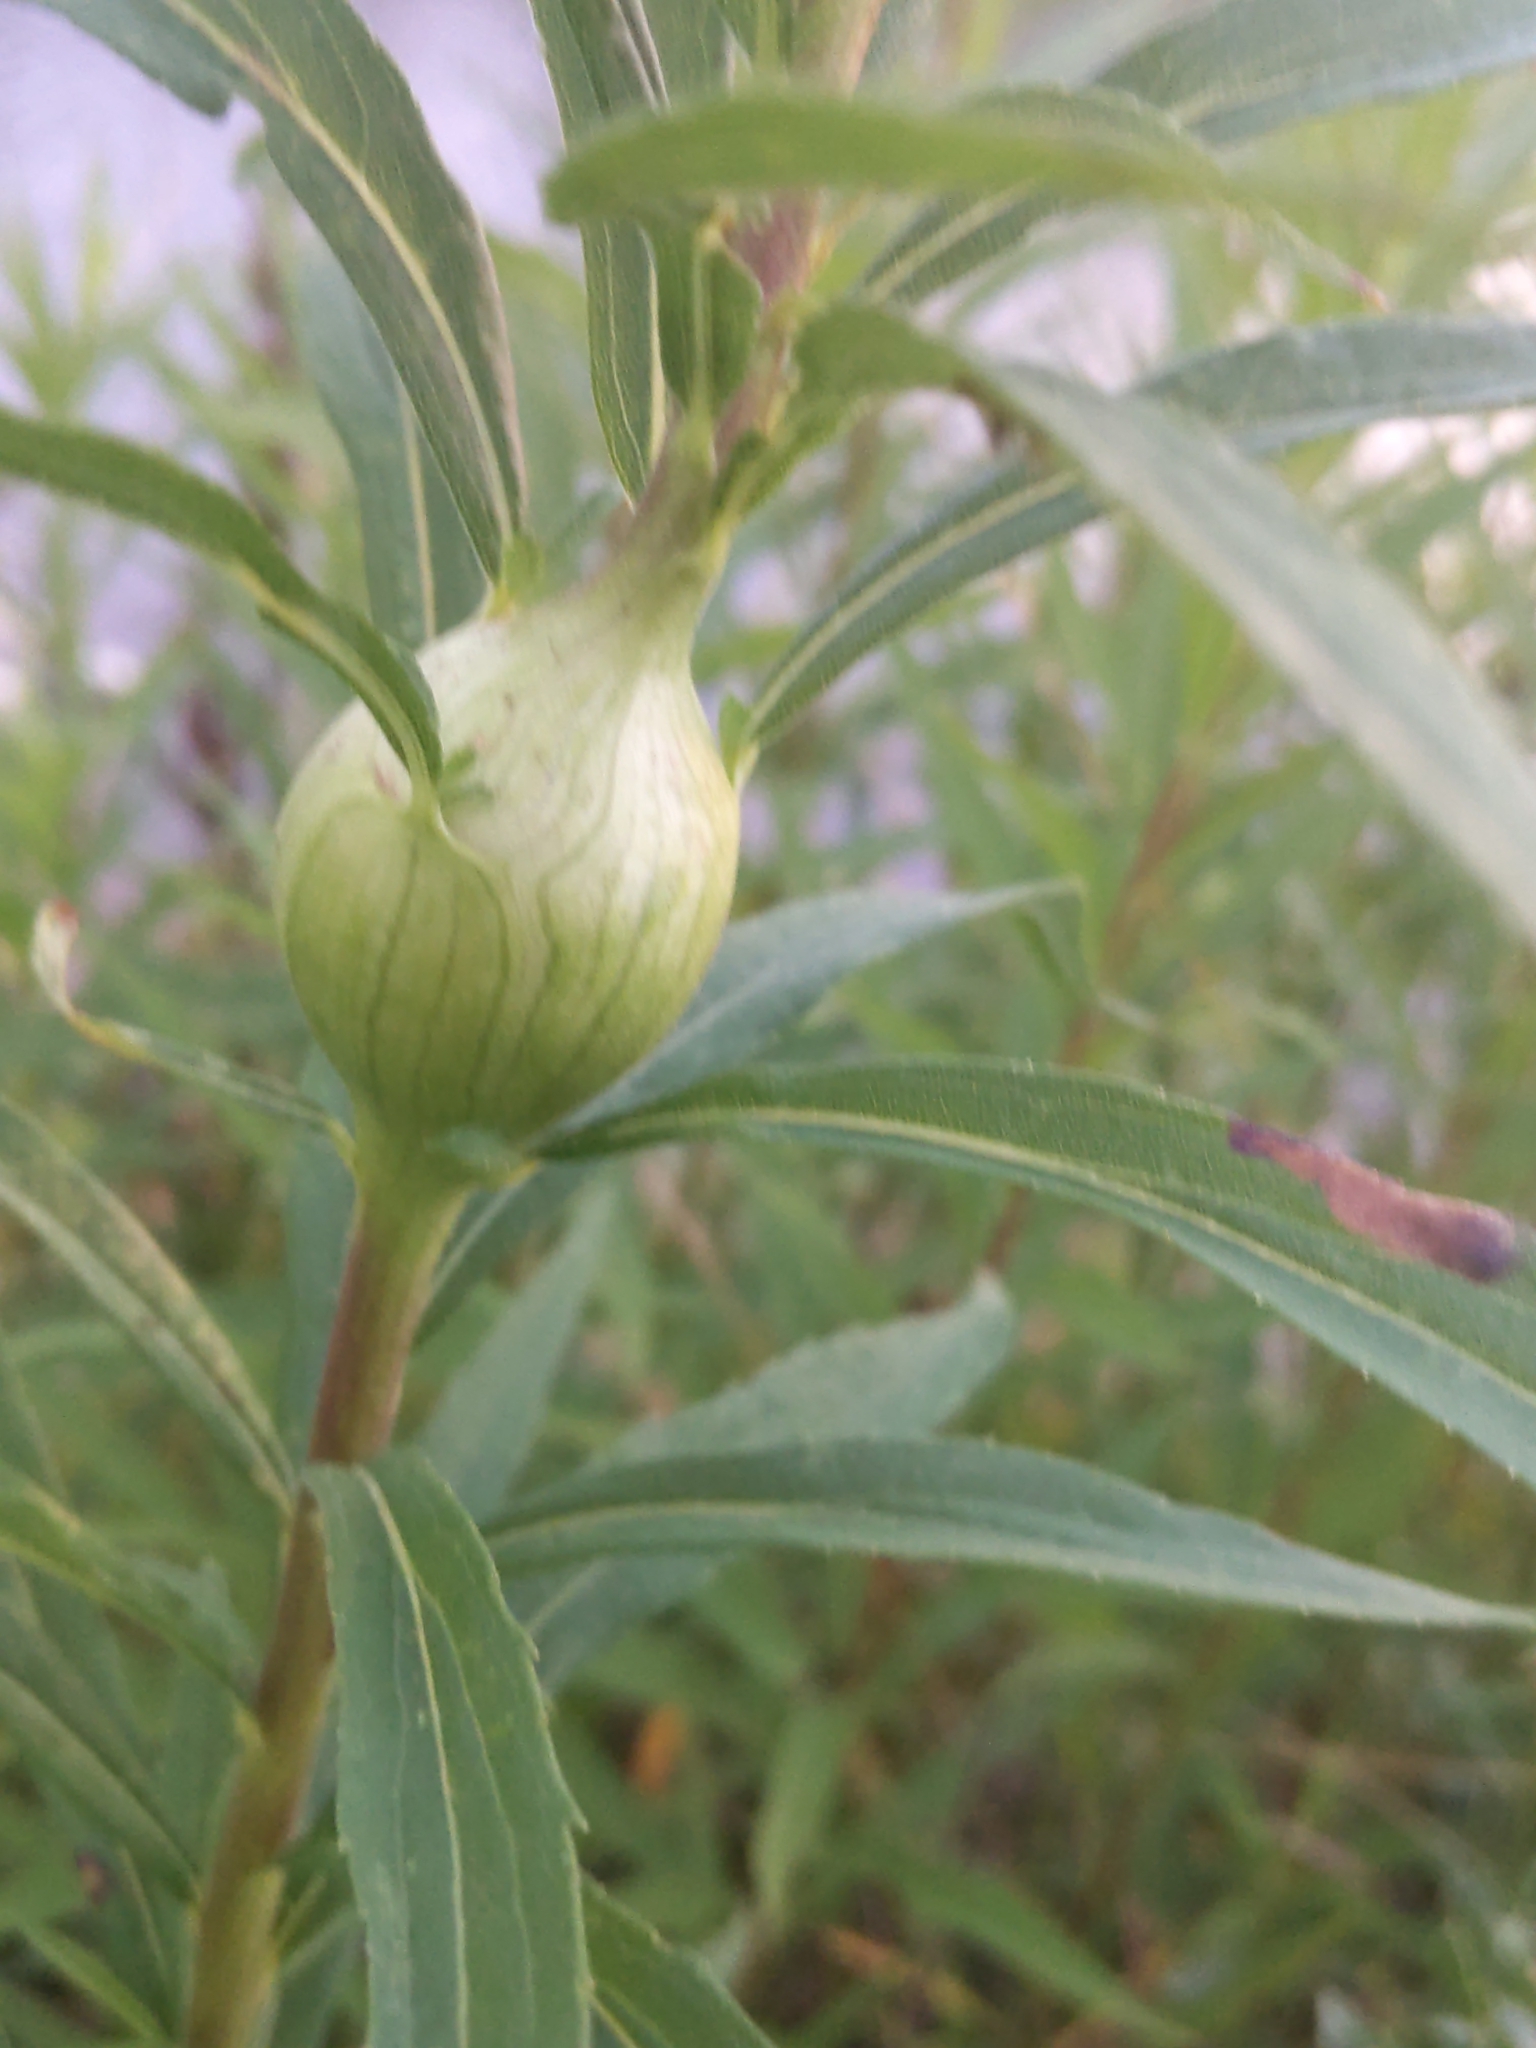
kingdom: Animalia
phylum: Arthropoda
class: Insecta
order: Diptera
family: Tephritidae
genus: Eurosta
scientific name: Eurosta solidaginis
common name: Goldenrod gall fly
